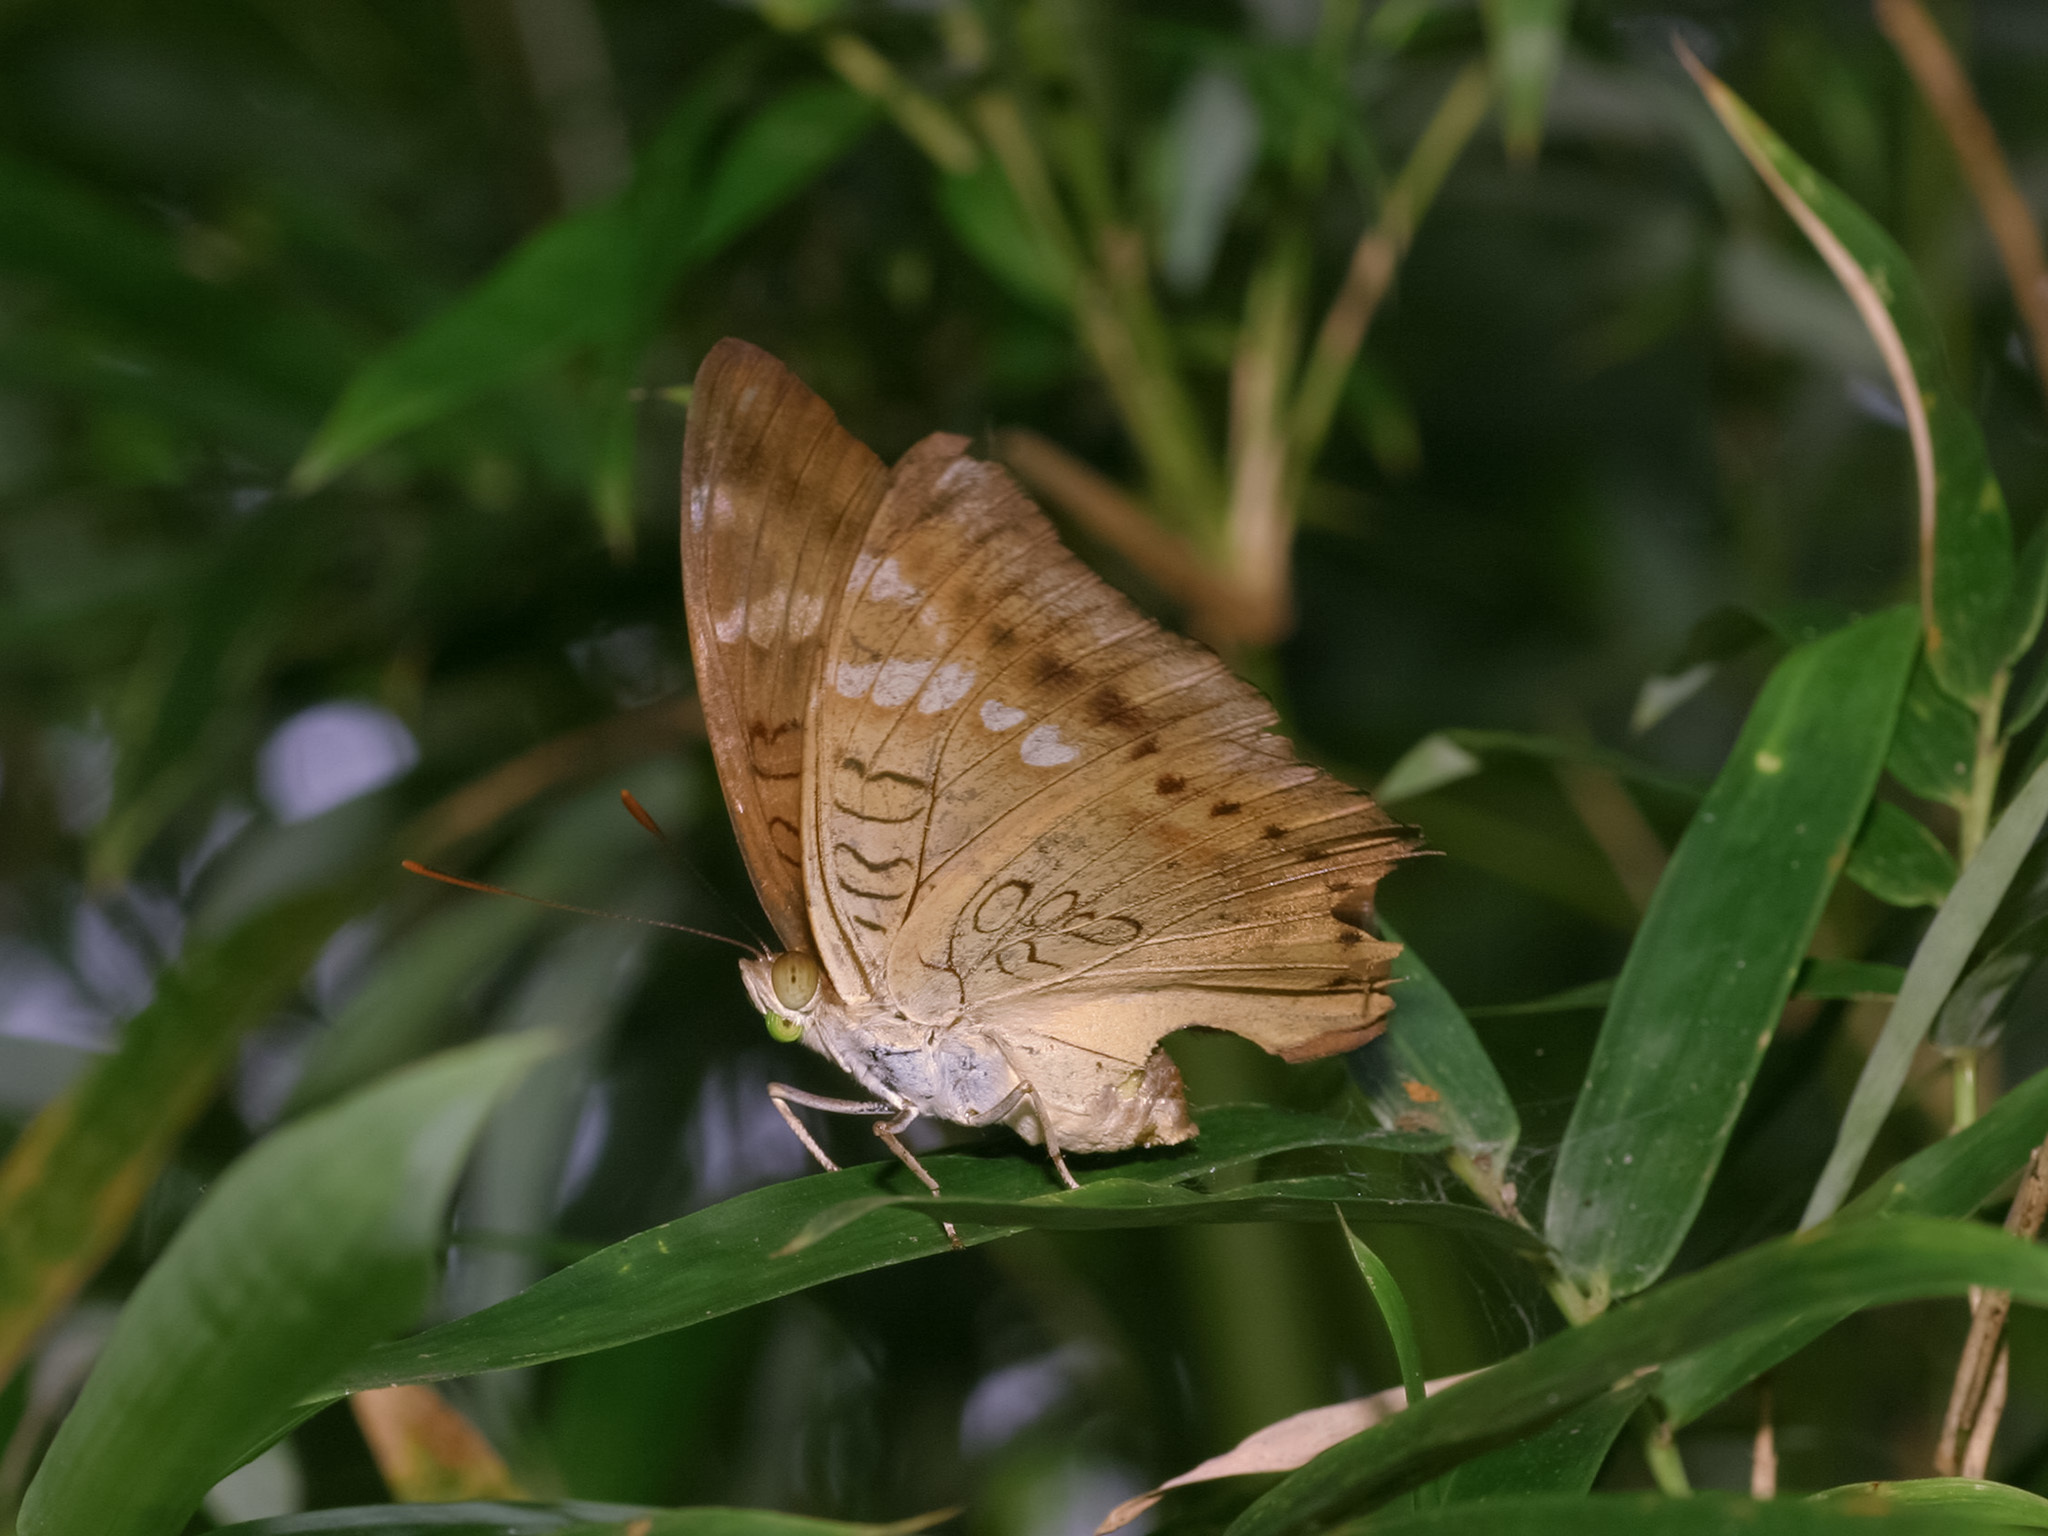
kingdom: Animalia
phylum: Arthropoda
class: Insecta
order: Lepidoptera
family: Nymphalidae
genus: Euthalia
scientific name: Euthalia aconthea
